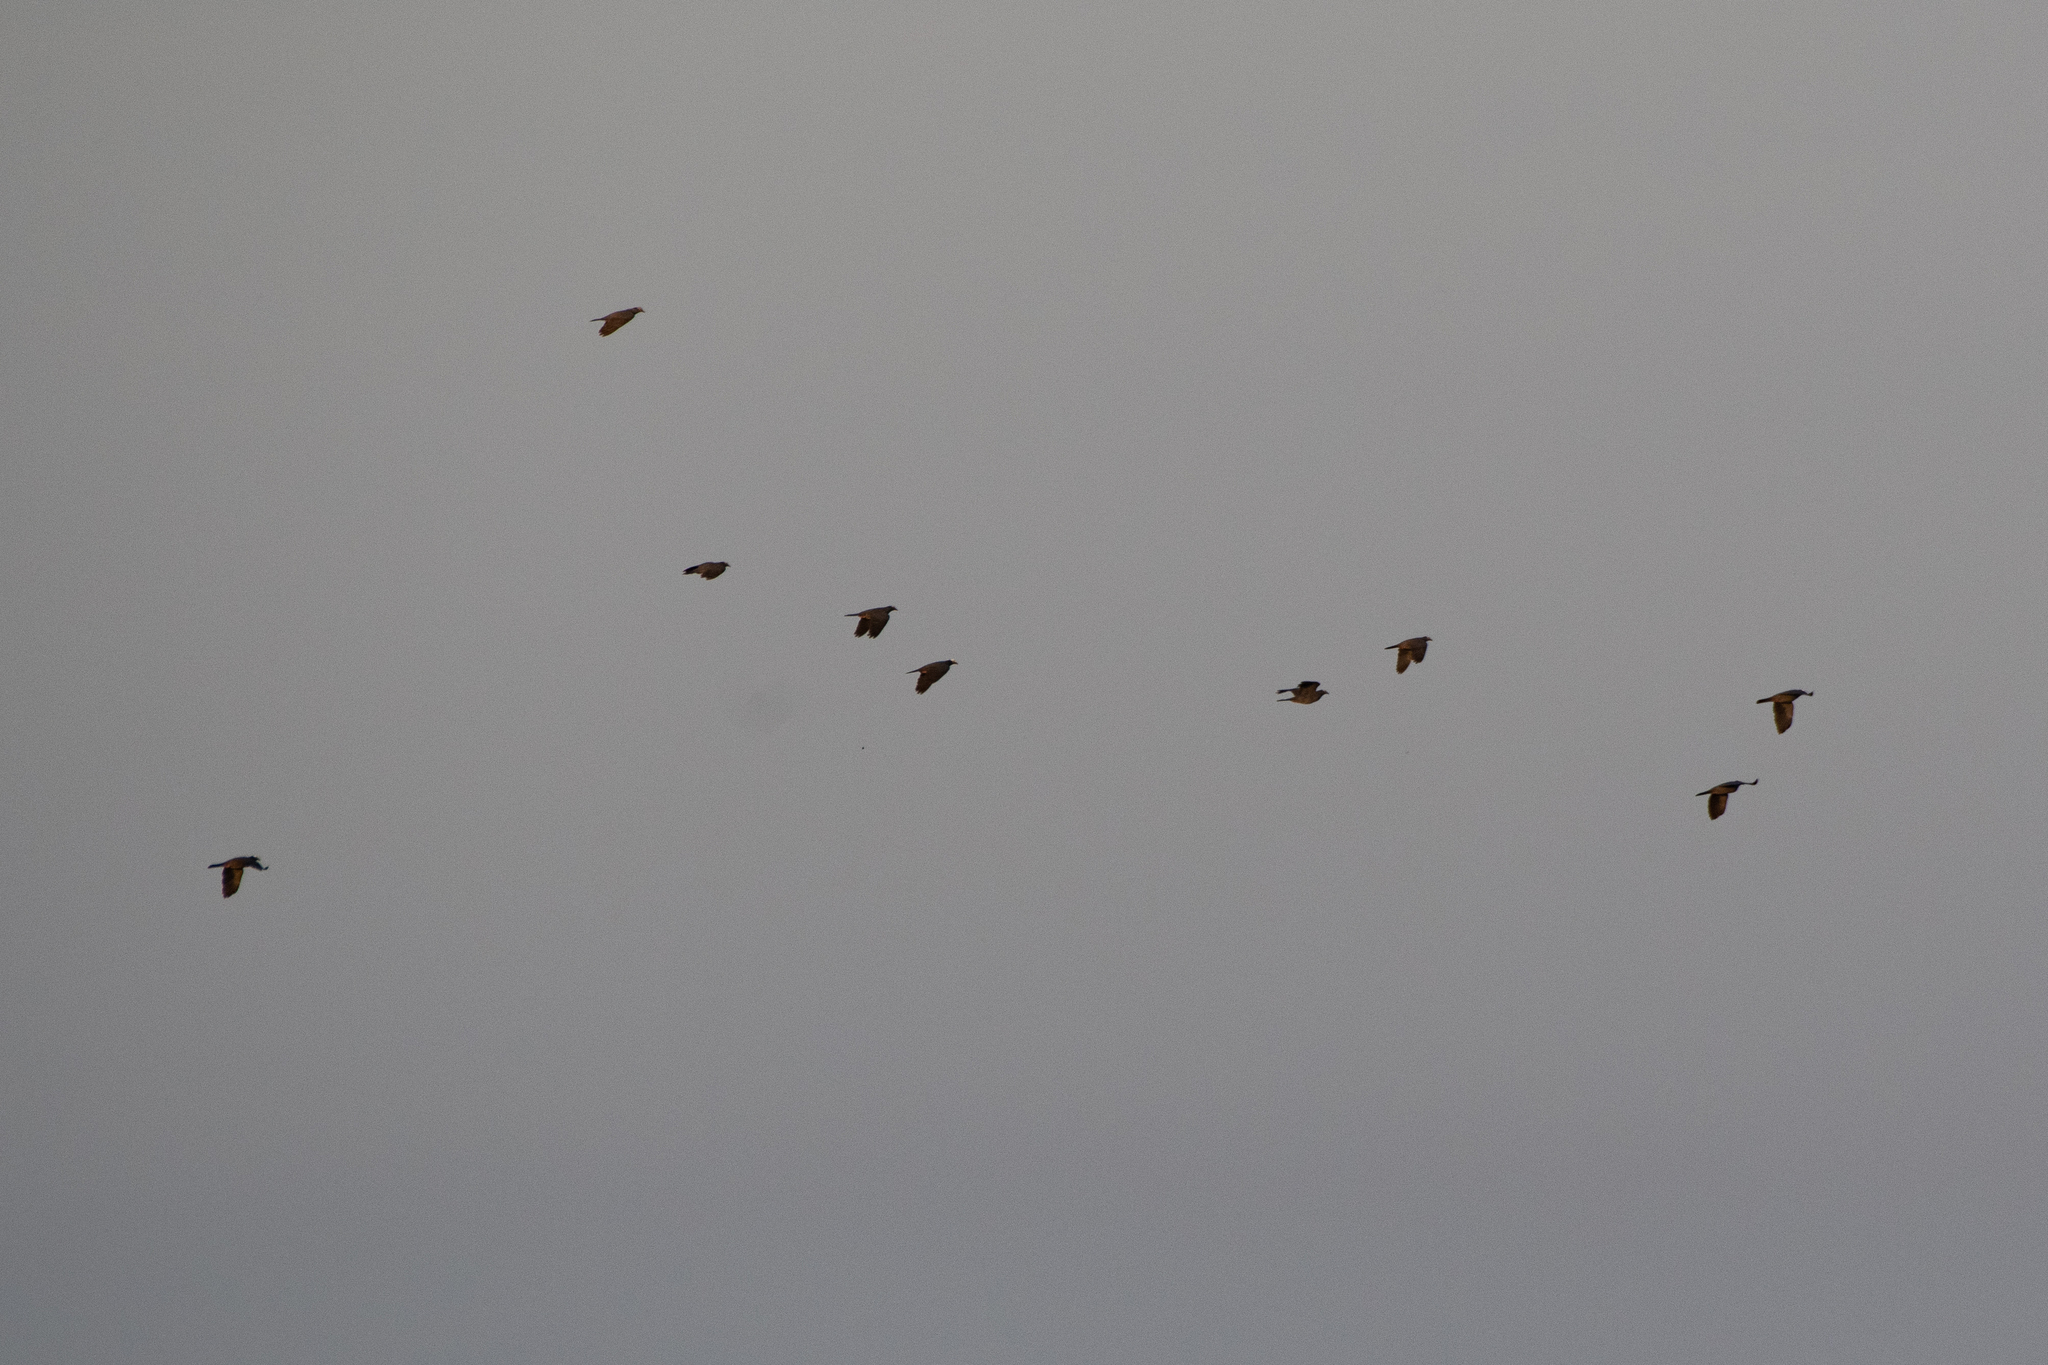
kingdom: Animalia
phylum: Chordata
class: Aves
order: Columbiformes
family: Columbidae
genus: Patagioenas
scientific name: Patagioenas leucocephala
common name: White-crowned pigeon
